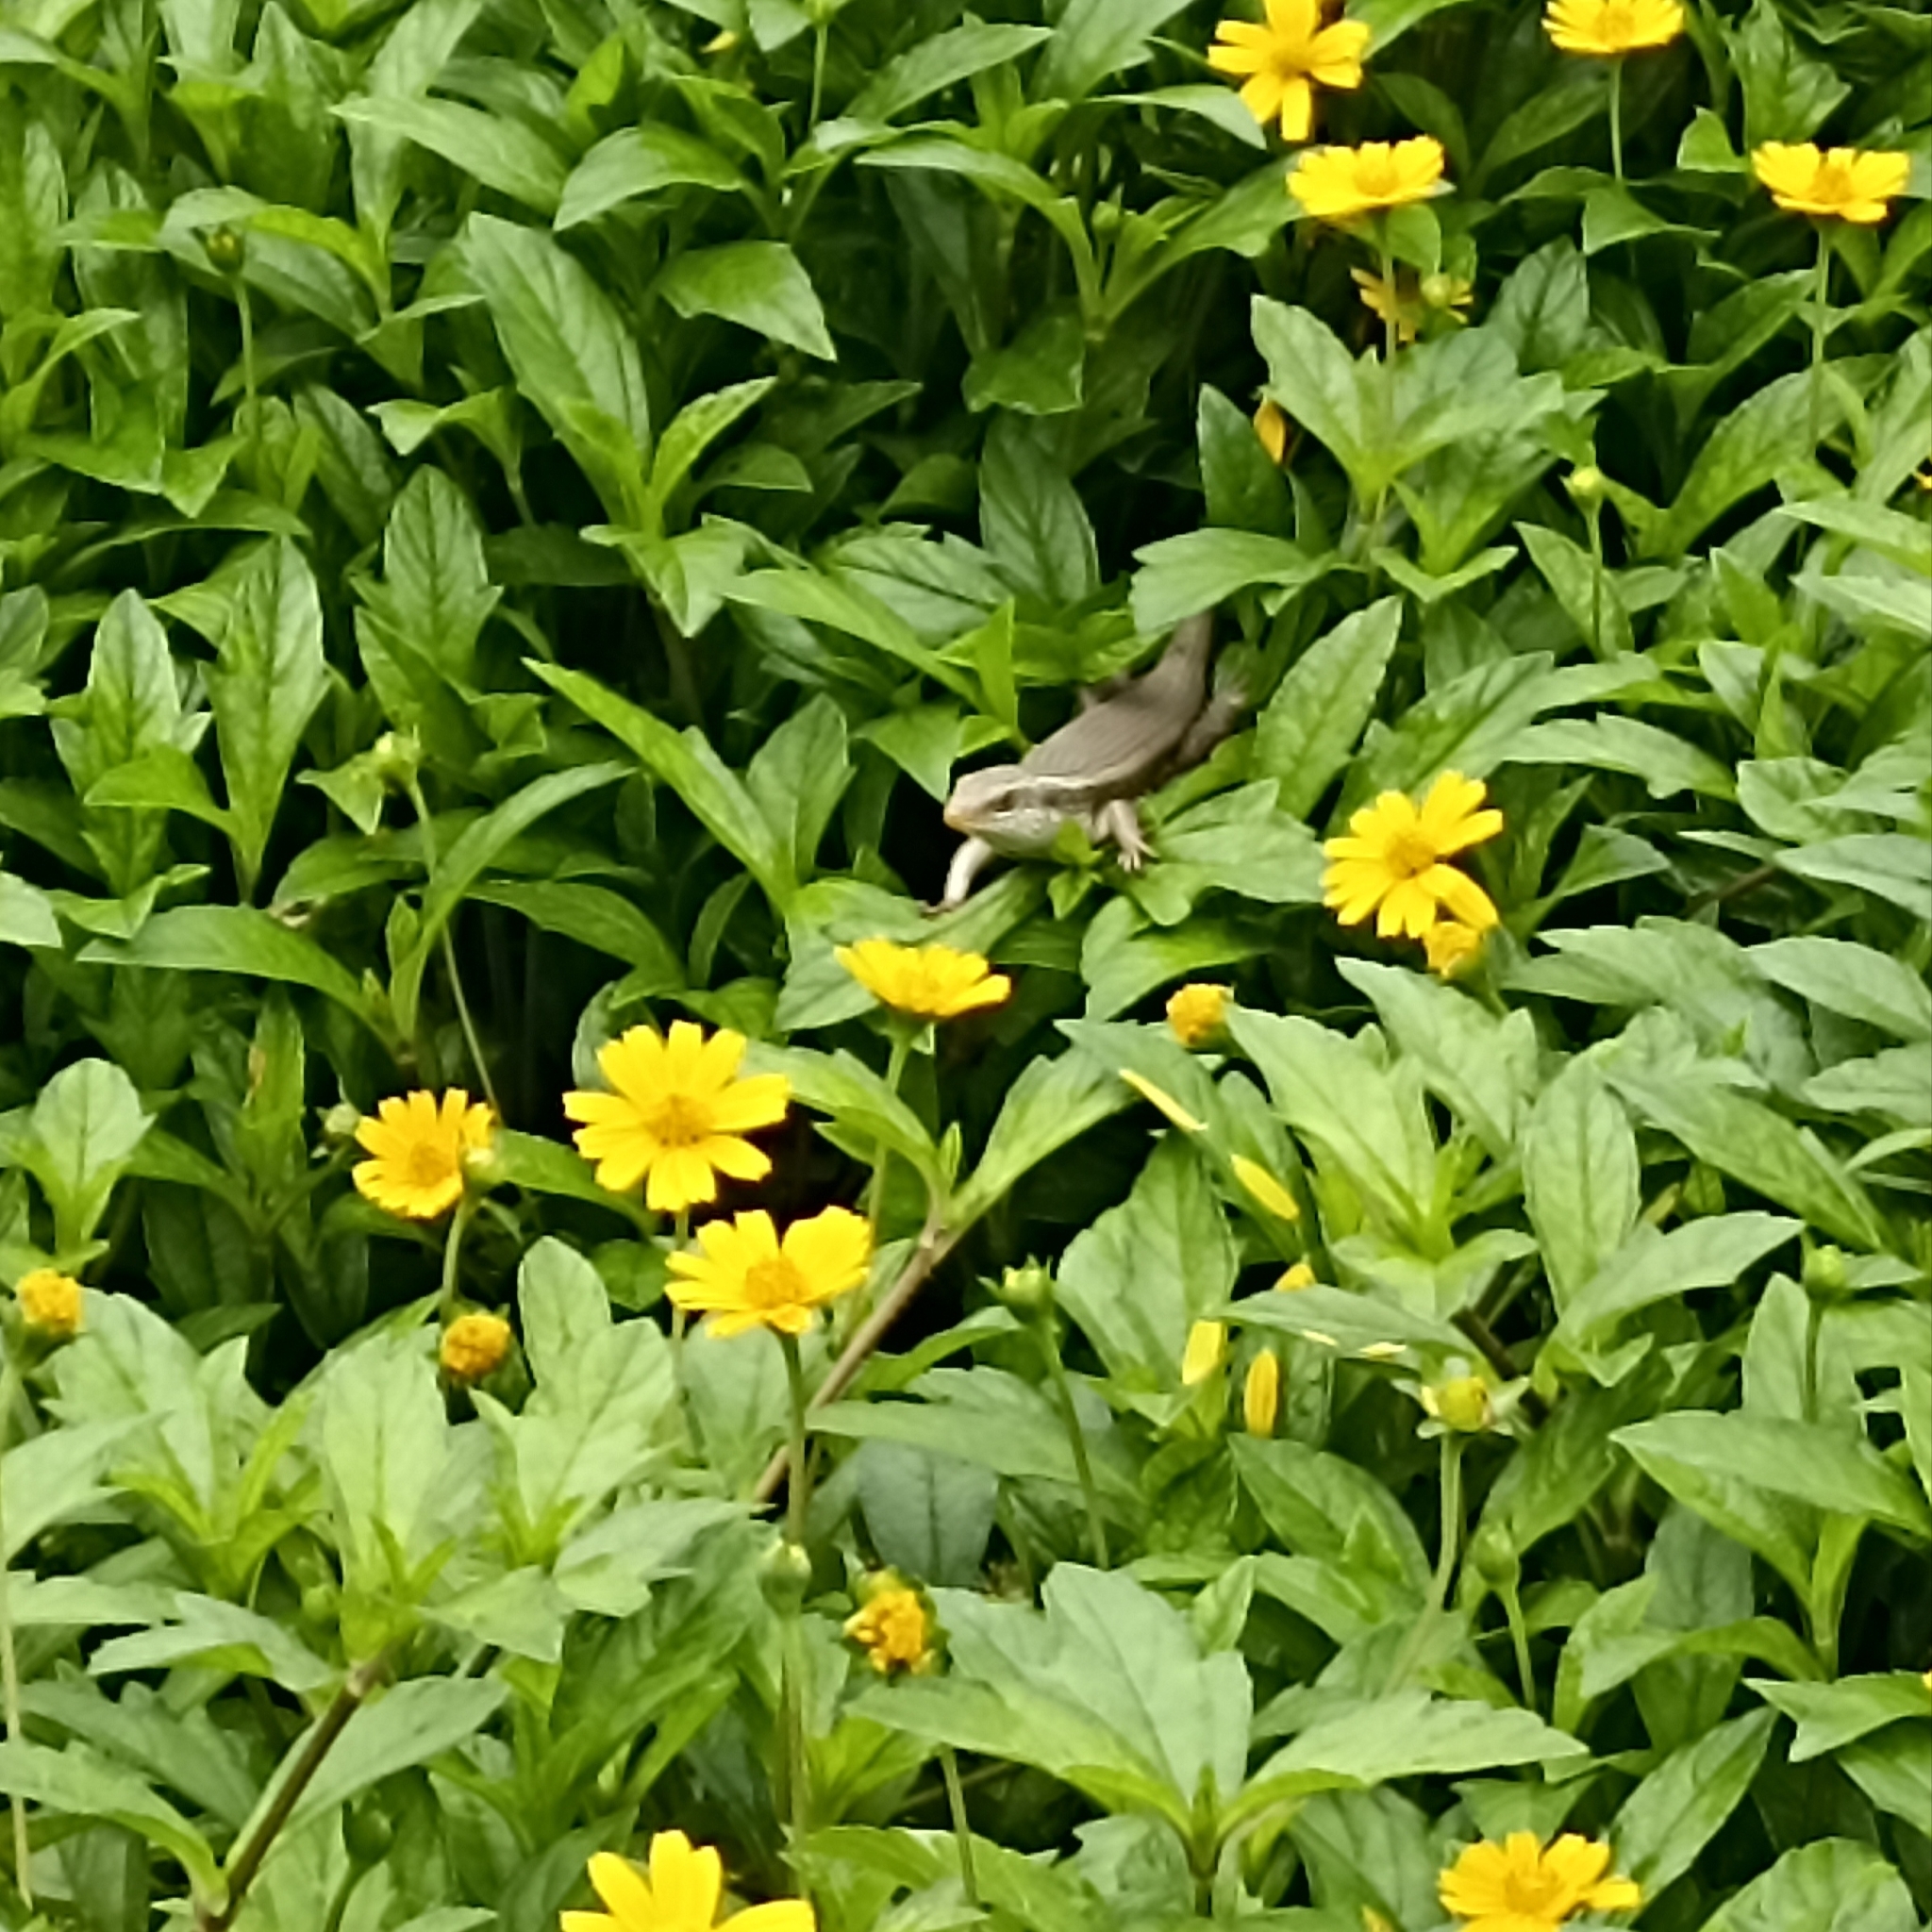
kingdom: Animalia
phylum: Chordata
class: Squamata
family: Scincidae
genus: Eutropis
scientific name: Eutropis carinata
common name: Keeled indian mabuya
